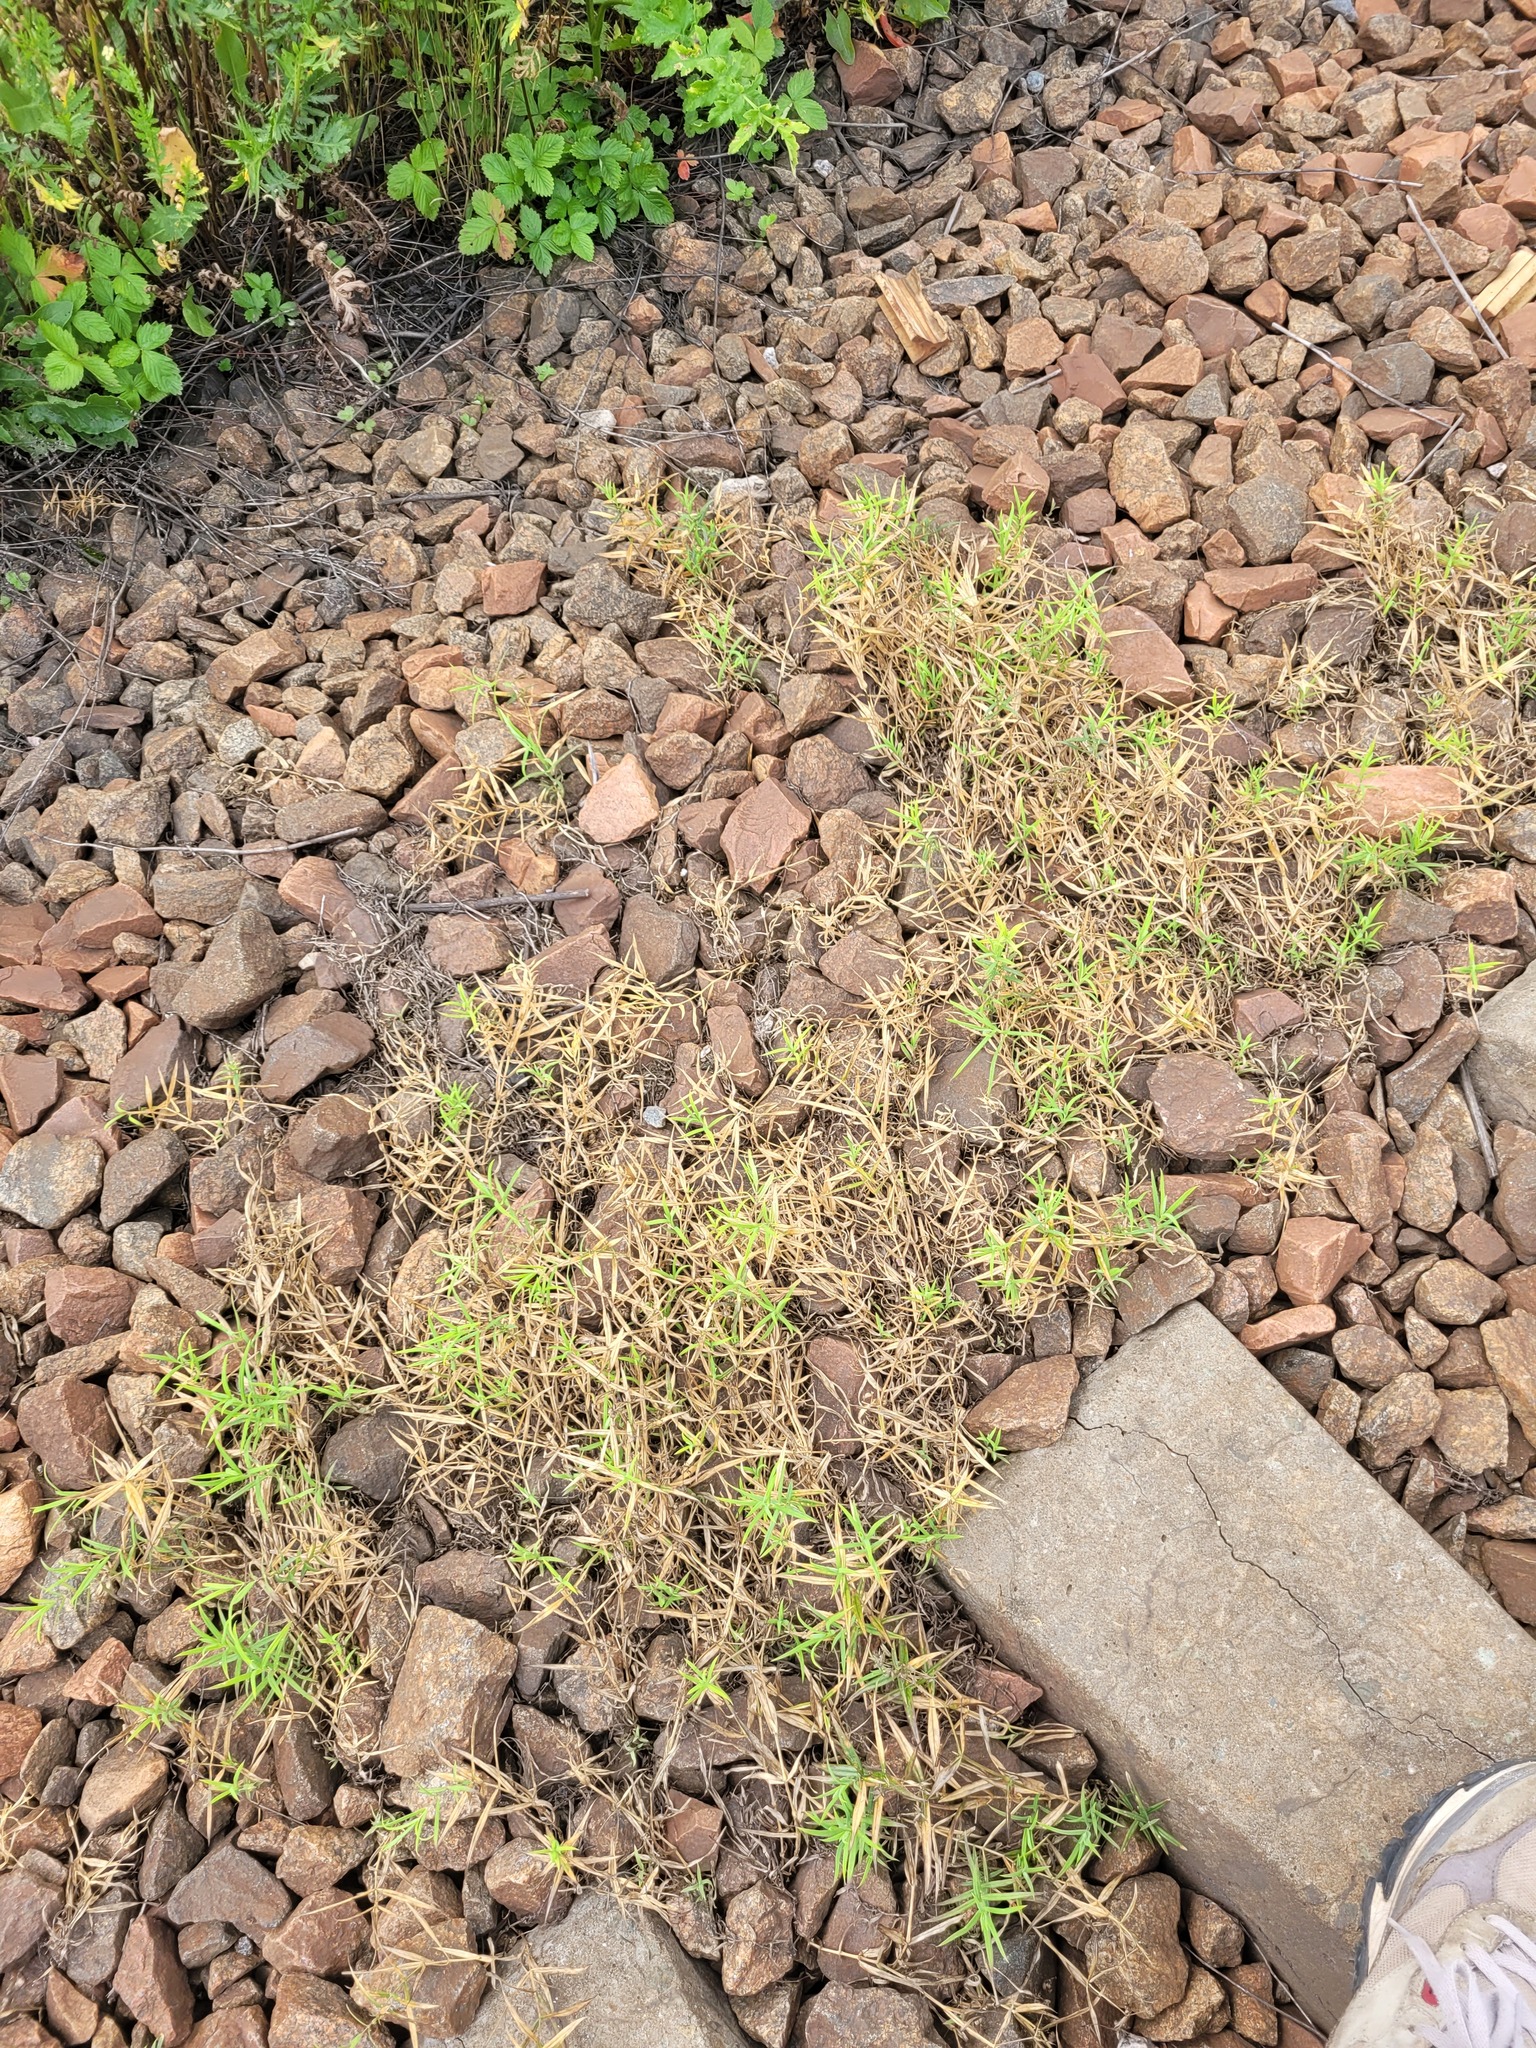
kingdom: Plantae
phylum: Tracheophyta
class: Magnoliopsida
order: Caryophyllales
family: Caryophyllaceae
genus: Rabelera
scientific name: Rabelera holostea
